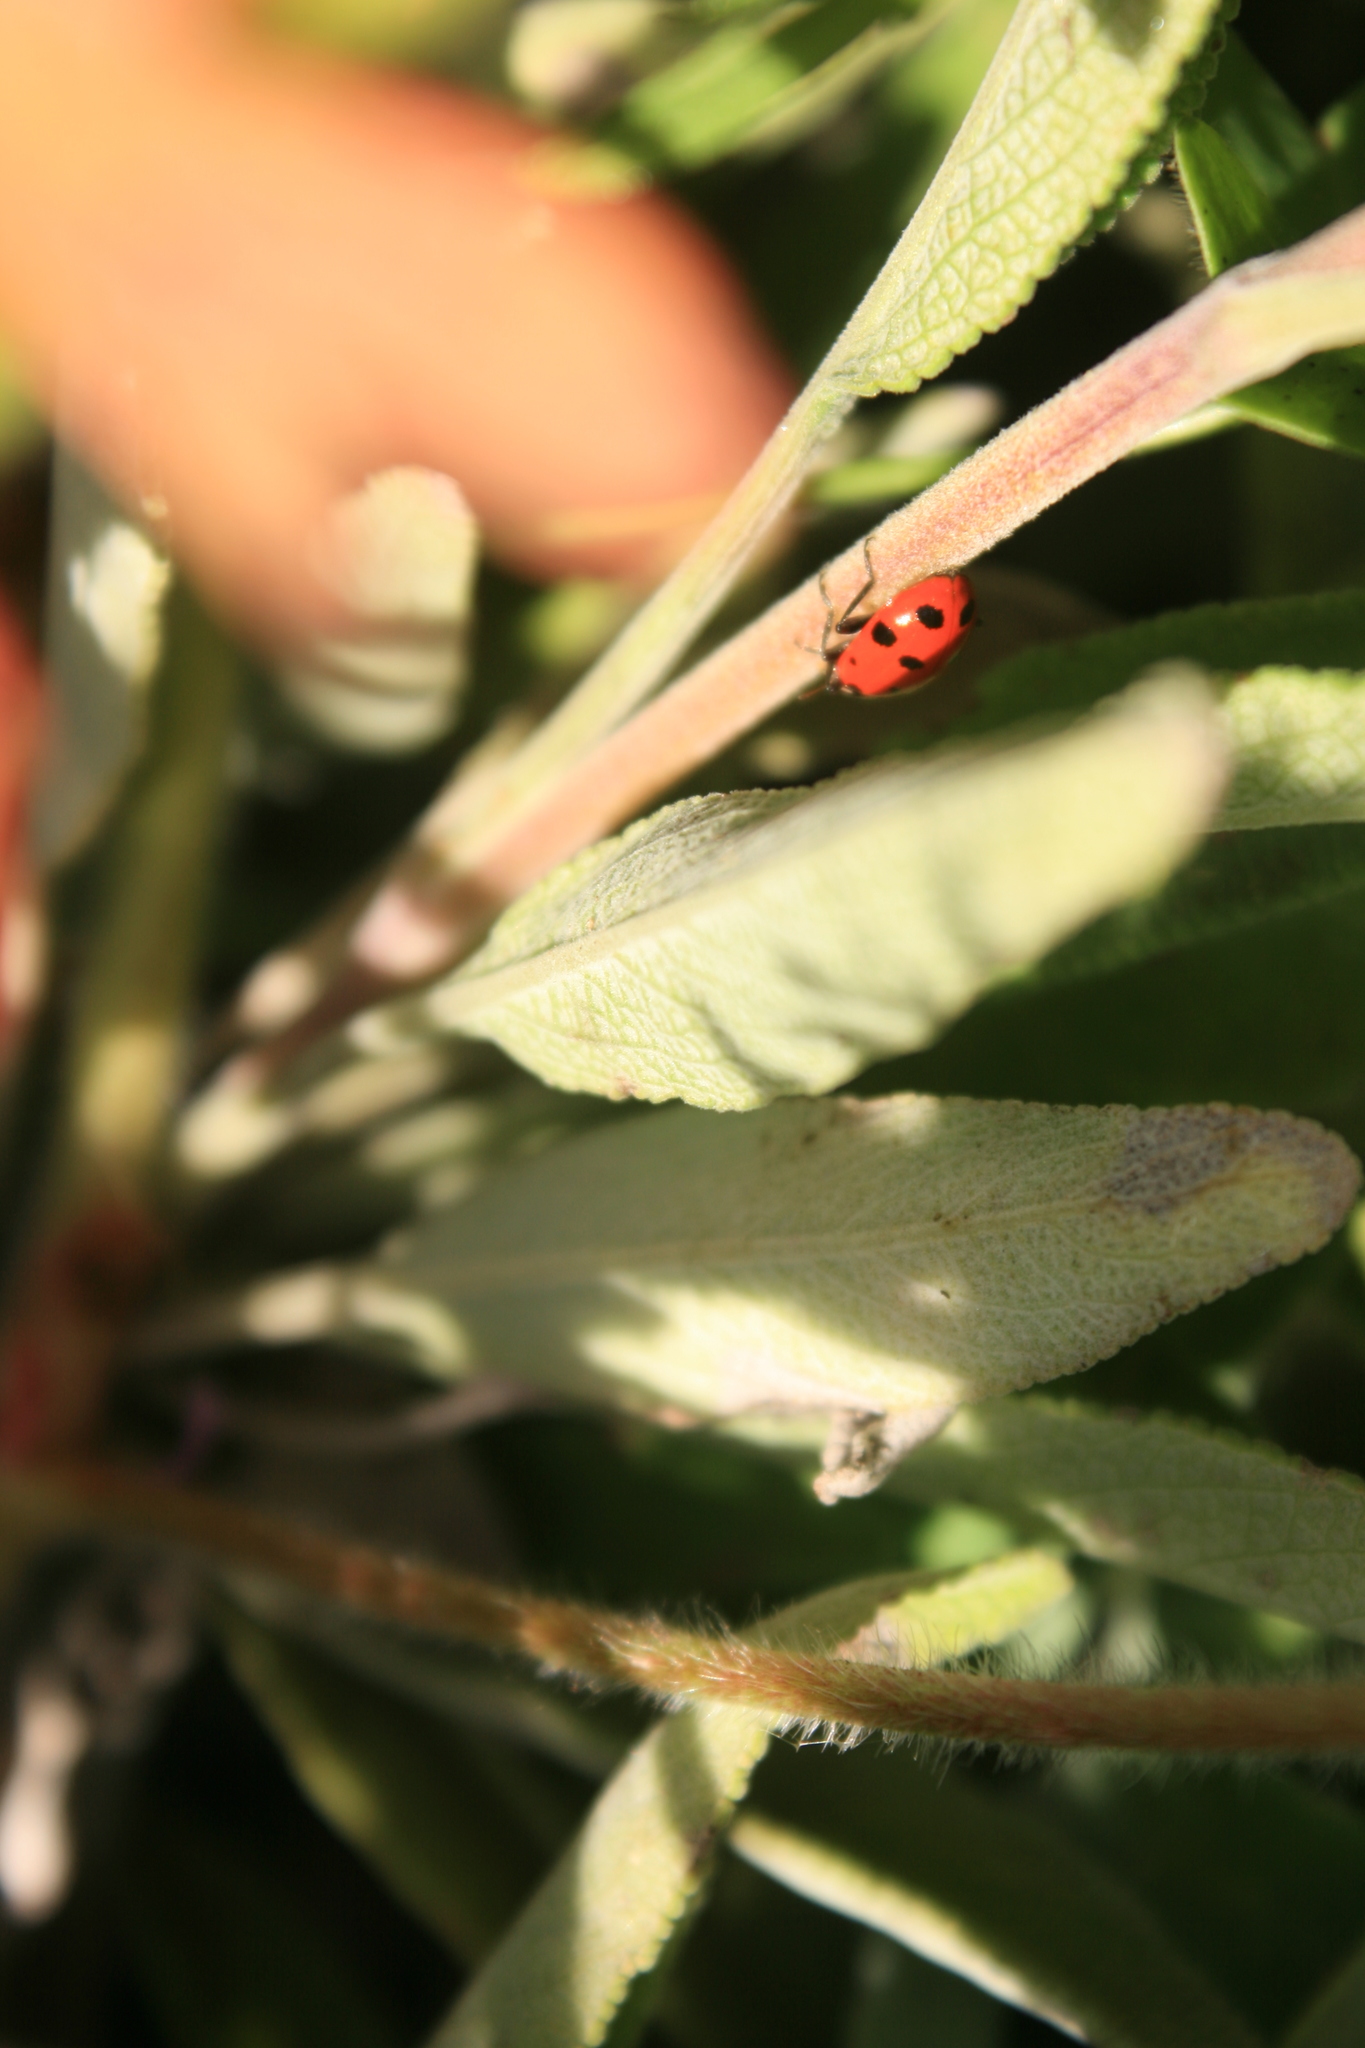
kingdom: Animalia
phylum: Arthropoda
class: Insecta
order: Coleoptera
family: Coccinellidae
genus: Hippodamia
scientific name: Hippodamia convergens
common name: Convergent lady beetle
